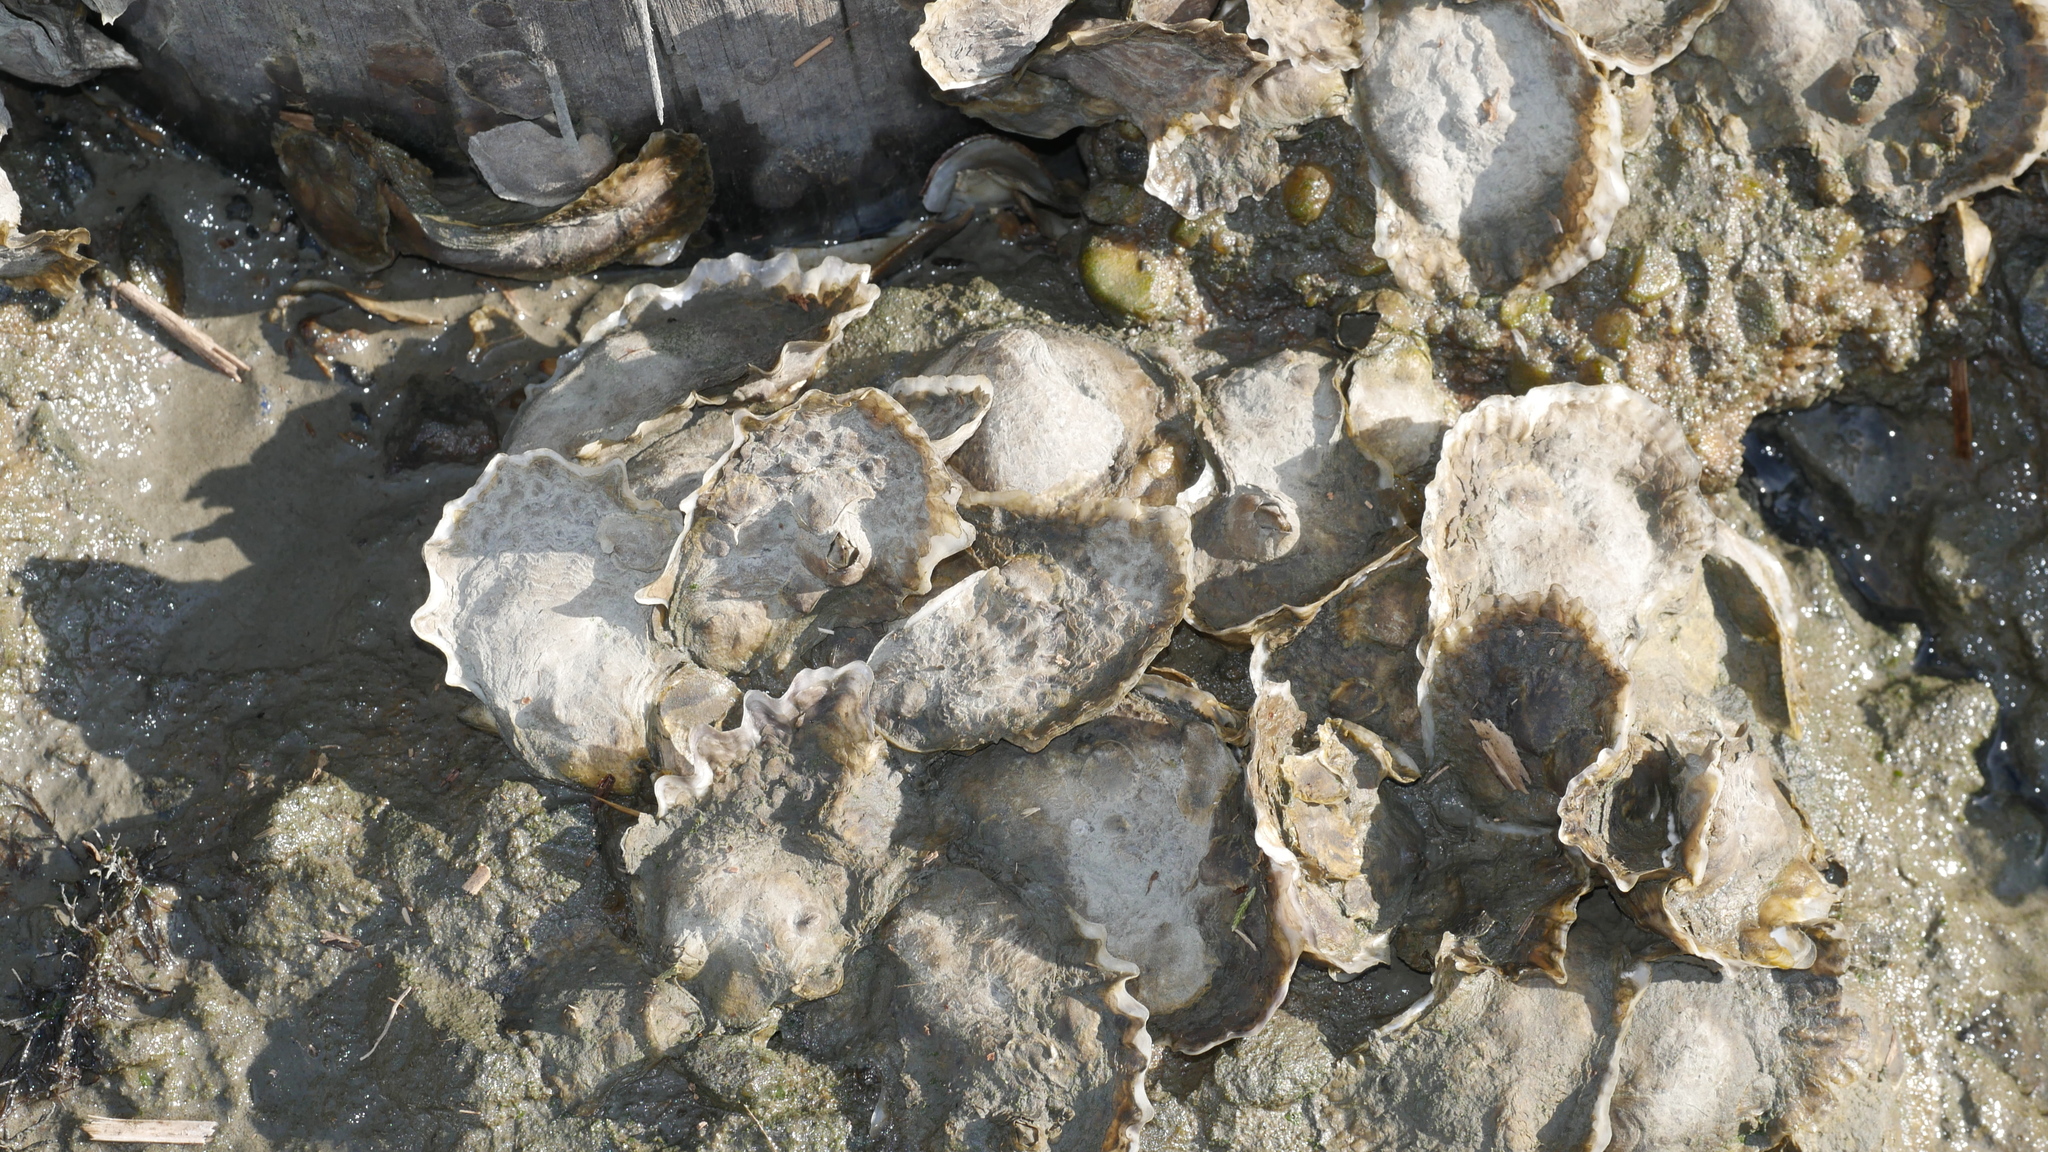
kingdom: Animalia
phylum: Mollusca
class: Bivalvia
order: Ostreida
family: Ostreidae
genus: Crassostrea
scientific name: Crassostrea virginica
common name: American oyster
